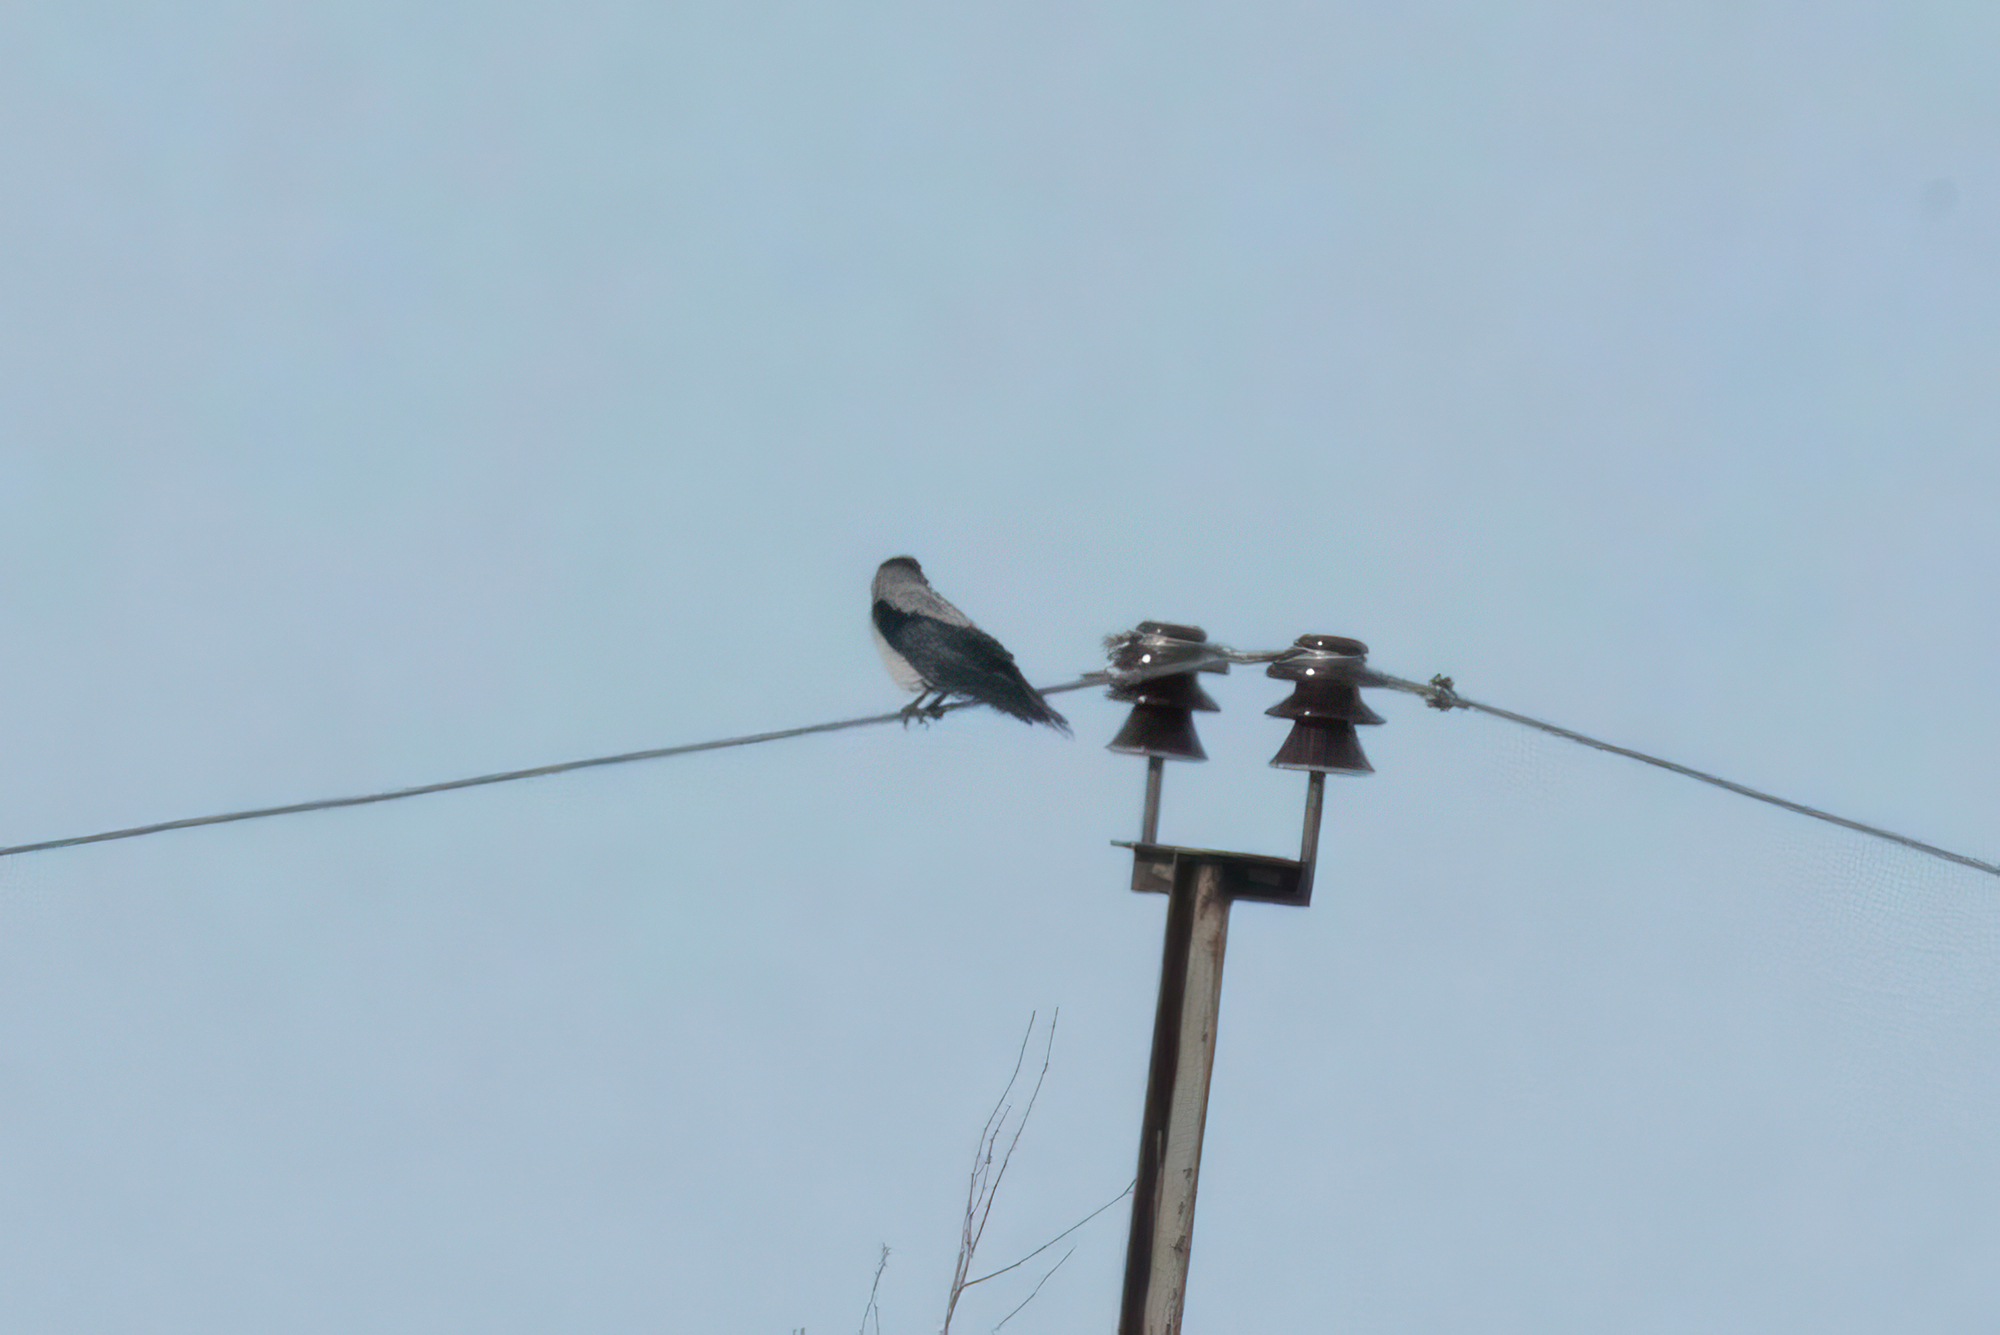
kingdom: Animalia
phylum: Chordata
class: Aves
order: Passeriformes
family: Corvidae
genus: Corvus
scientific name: Corvus cornix
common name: Hooded crow
